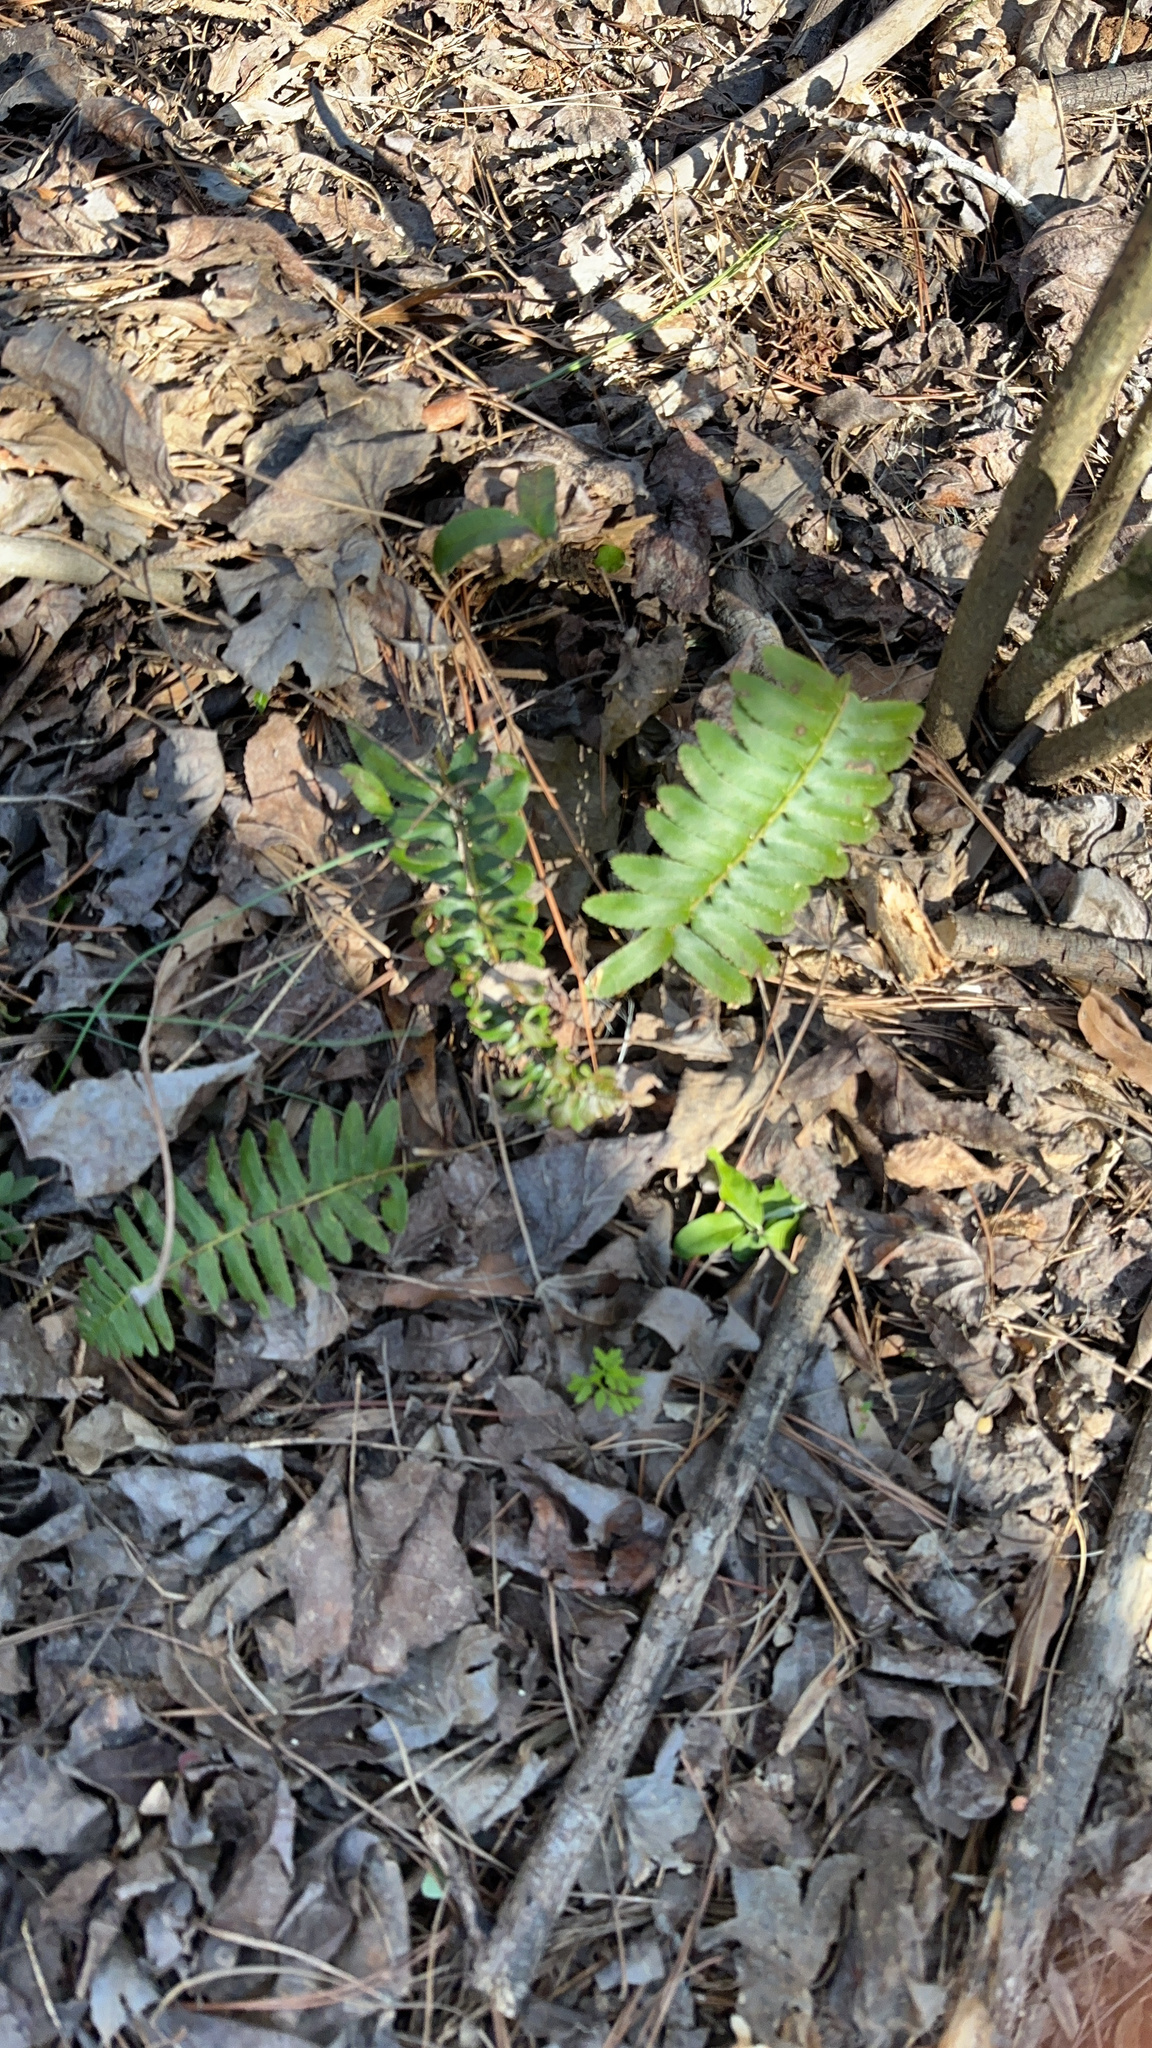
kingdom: Plantae
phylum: Tracheophyta
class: Polypodiopsida
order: Polypodiales
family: Dryopteridaceae
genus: Polystichum
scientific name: Polystichum acrostichoides
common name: Christmas fern
